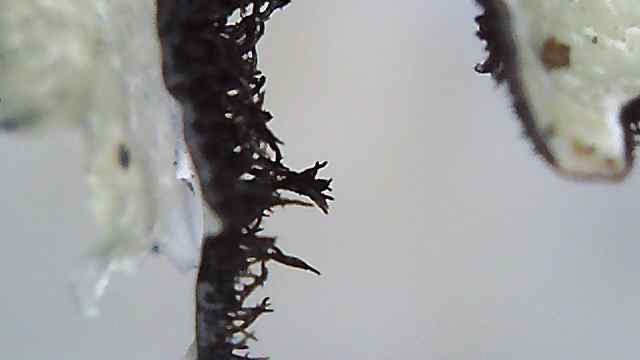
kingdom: Fungi
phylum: Ascomycota
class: Lecanoromycetes
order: Lecanorales
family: Parmeliaceae
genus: Parmelia
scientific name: Parmelia sulcata
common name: Netted shield lichen
